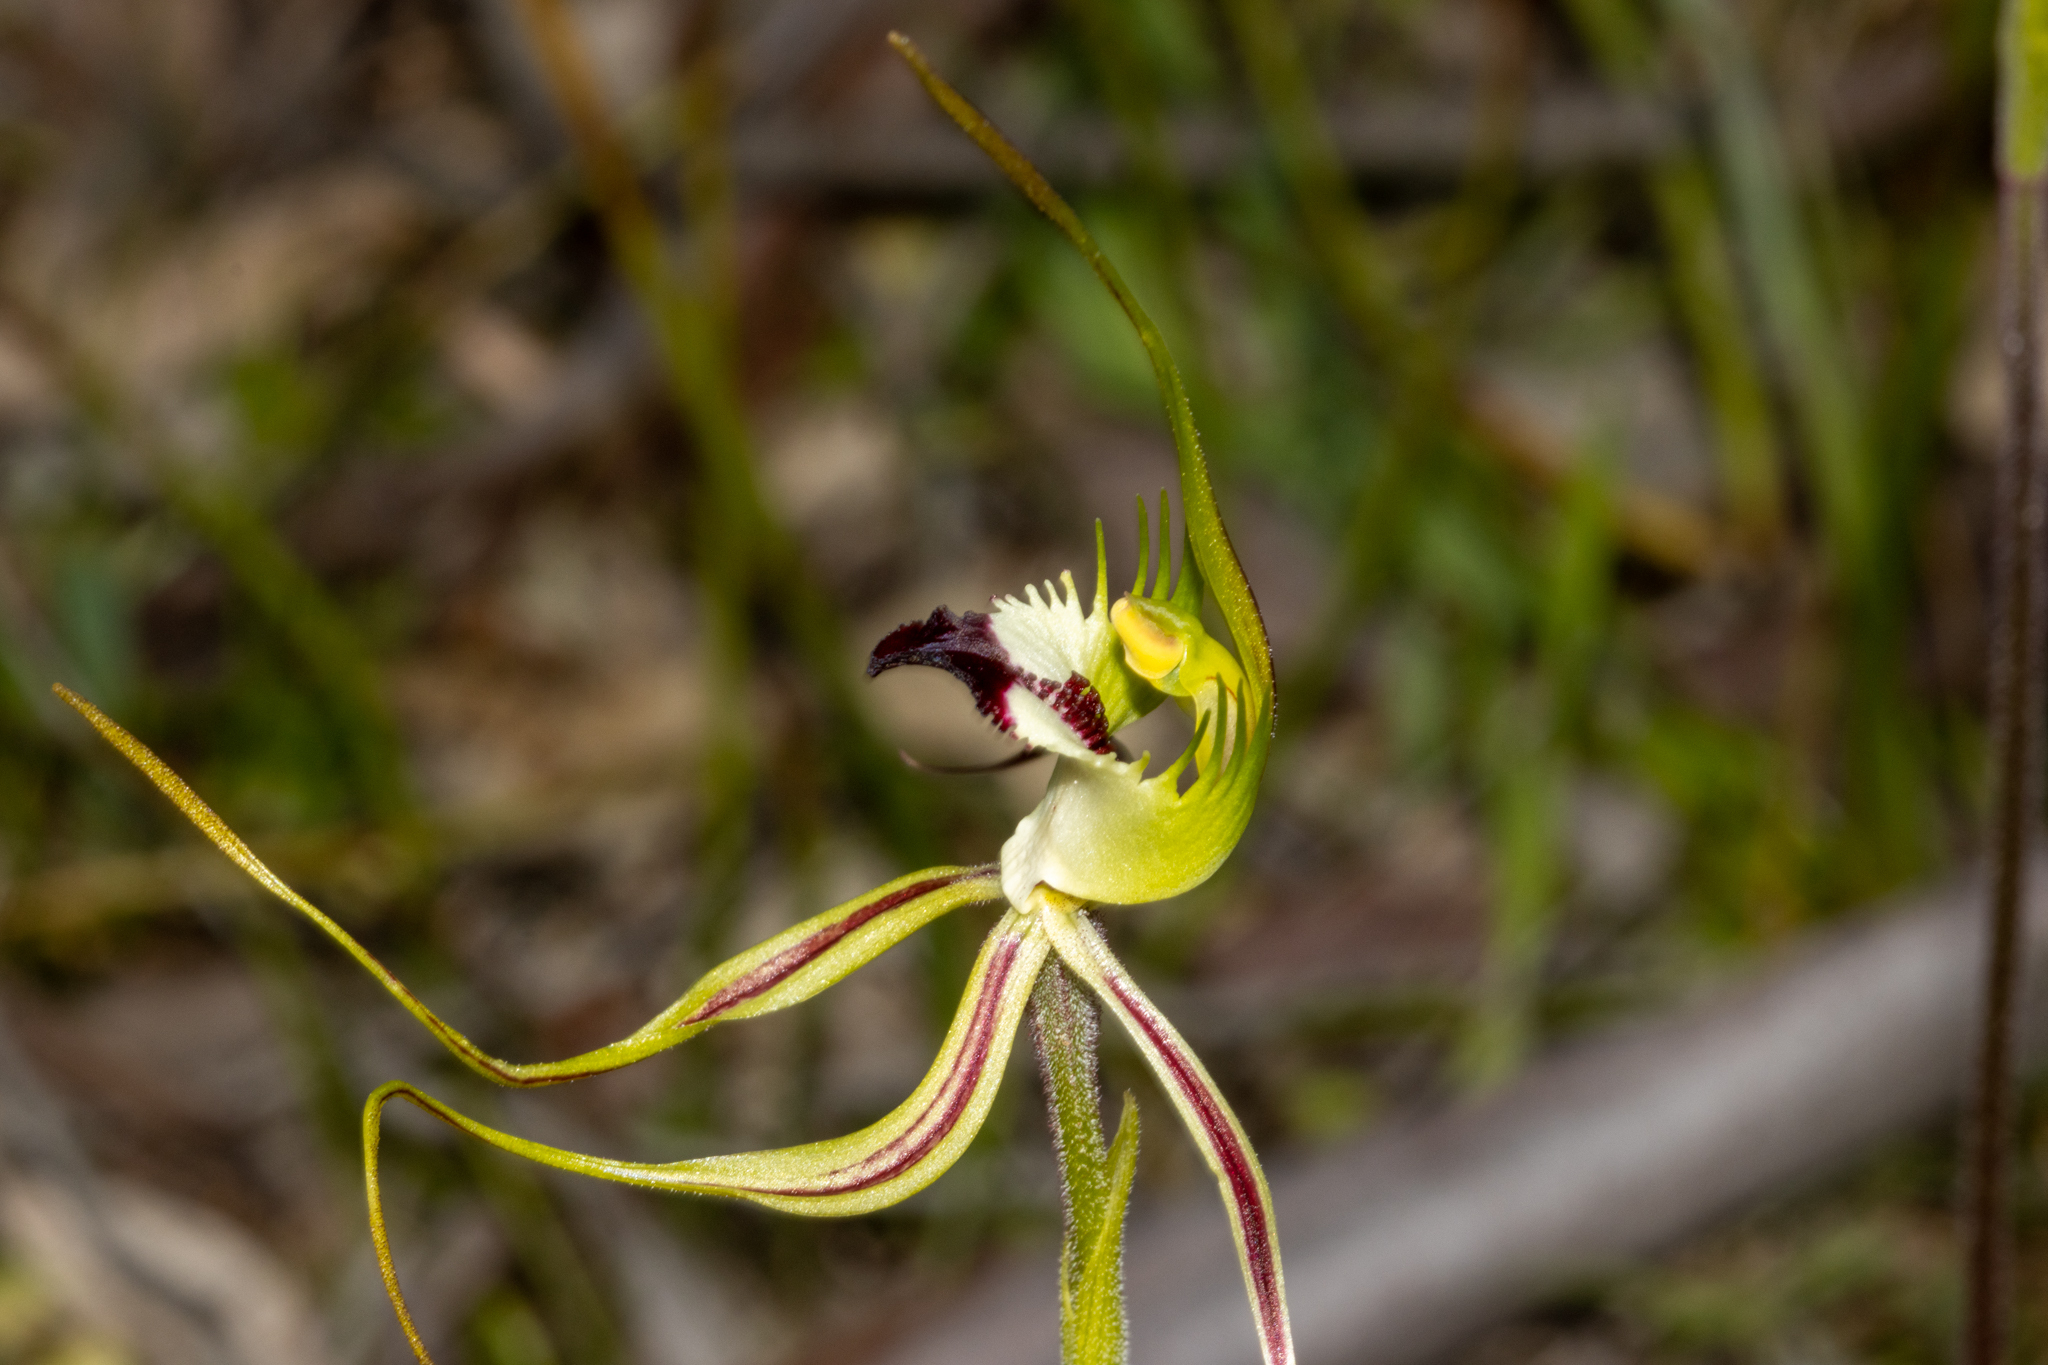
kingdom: Plantae
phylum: Tracheophyta
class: Liliopsida
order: Asparagales
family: Orchidaceae
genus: Caladenia
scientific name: Caladenia tentaculata
